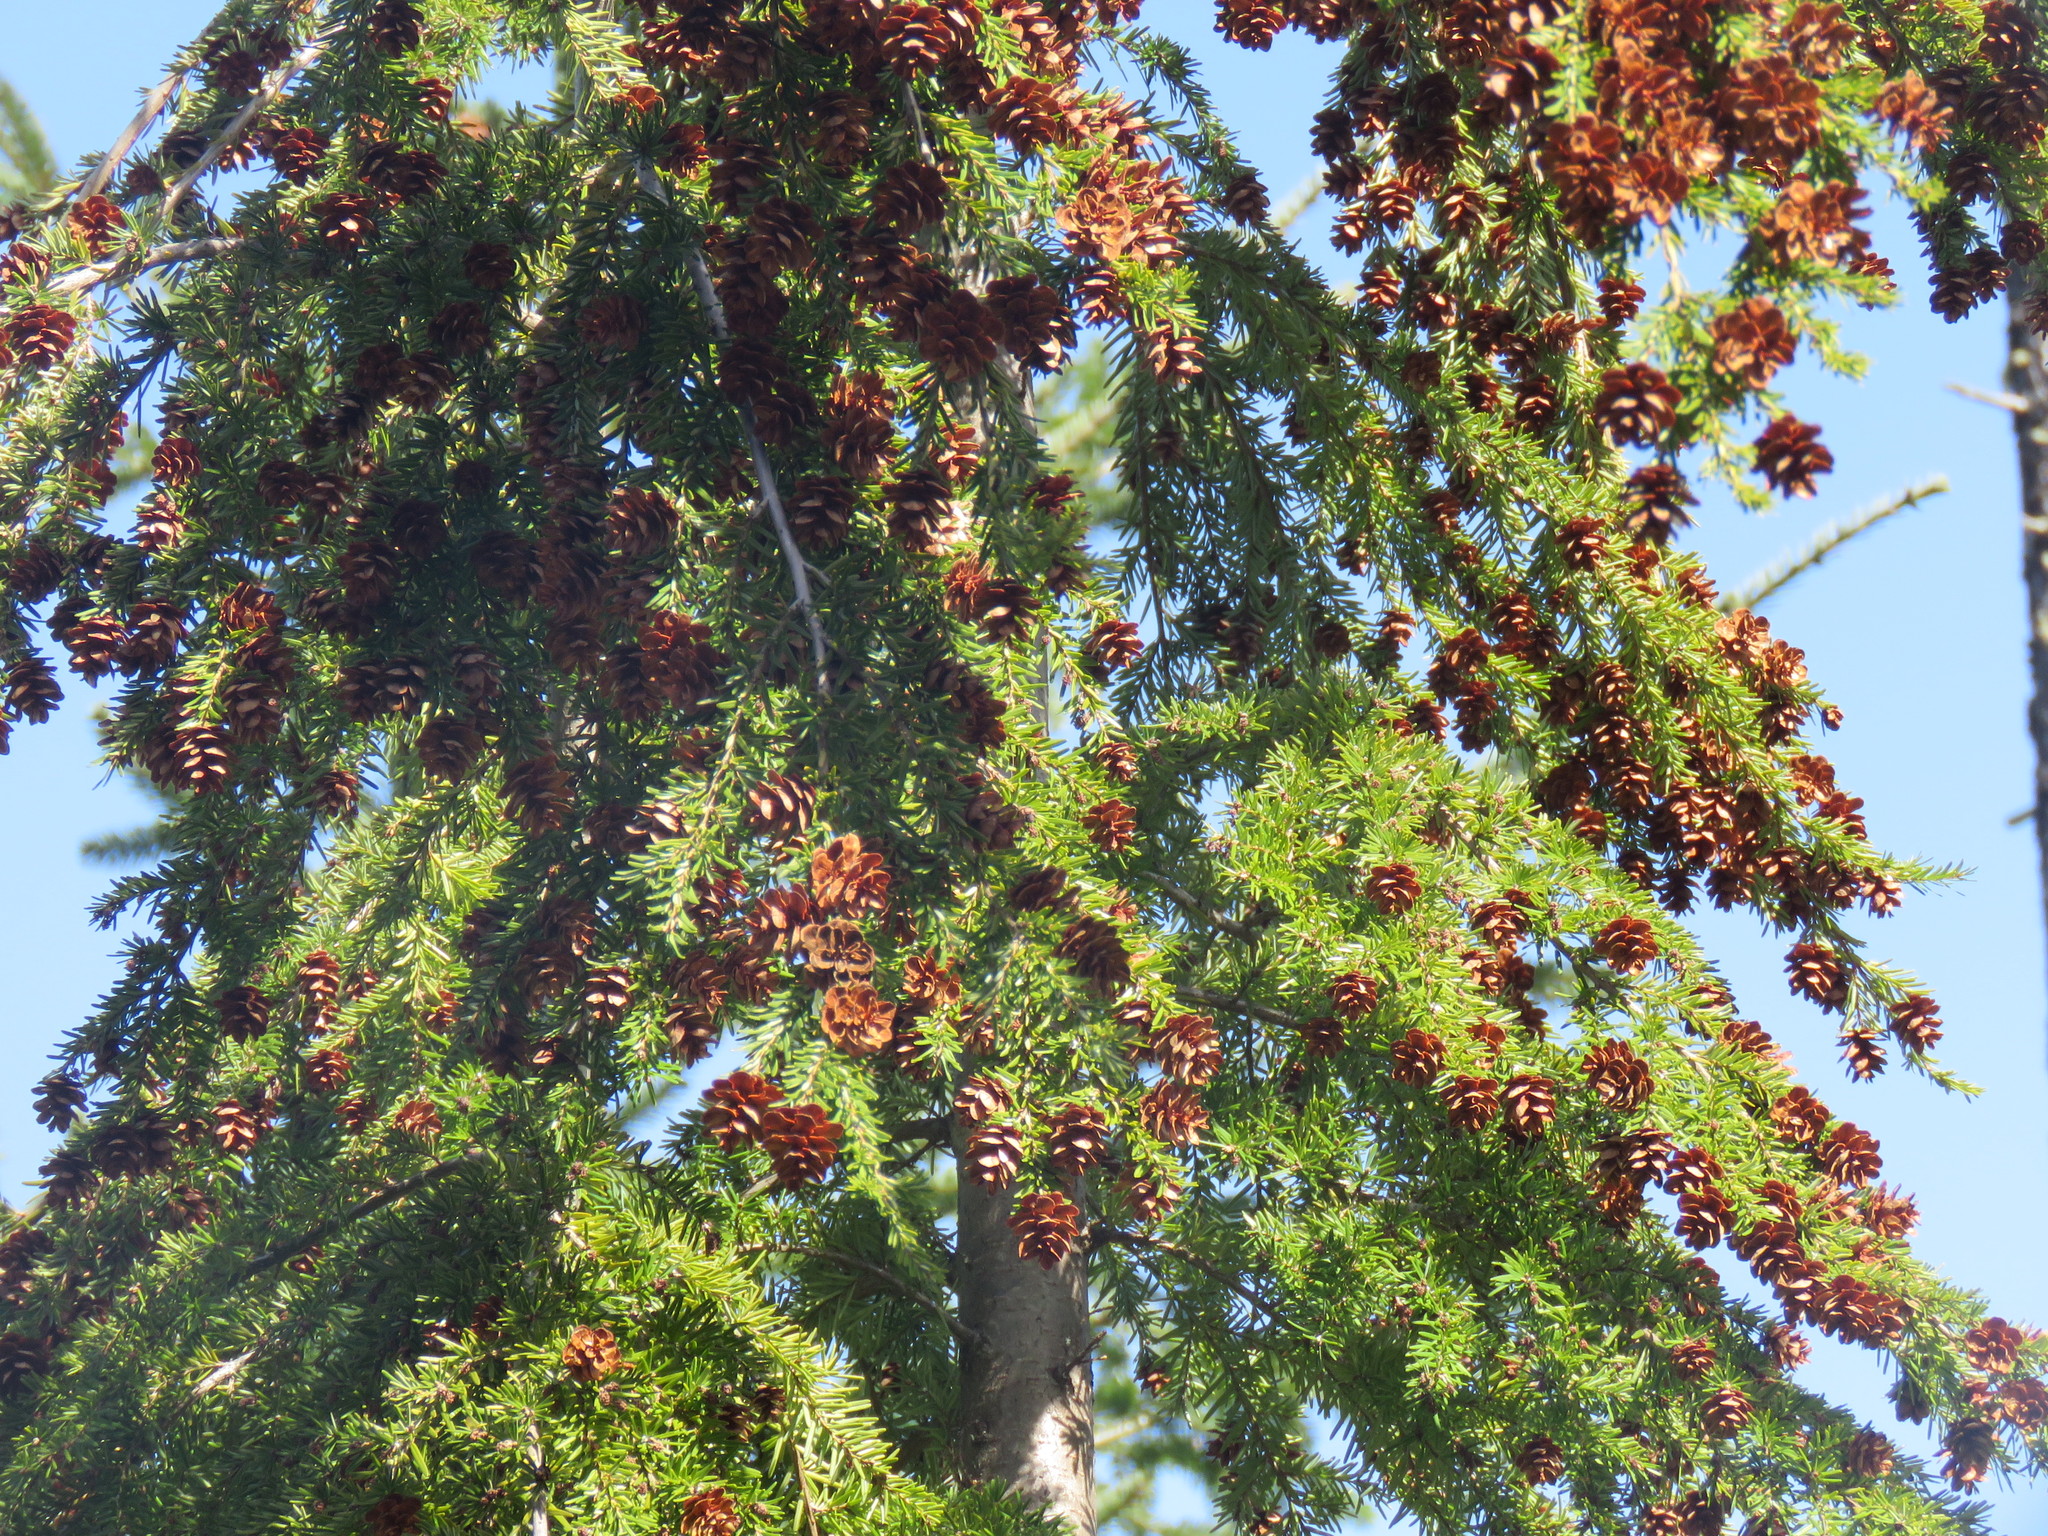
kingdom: Plantae
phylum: Tracheophyta
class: Pinopsida
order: Pinales
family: Pinaceae
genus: Tsuga
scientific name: Tsuga heterophylla
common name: Western hemlock
